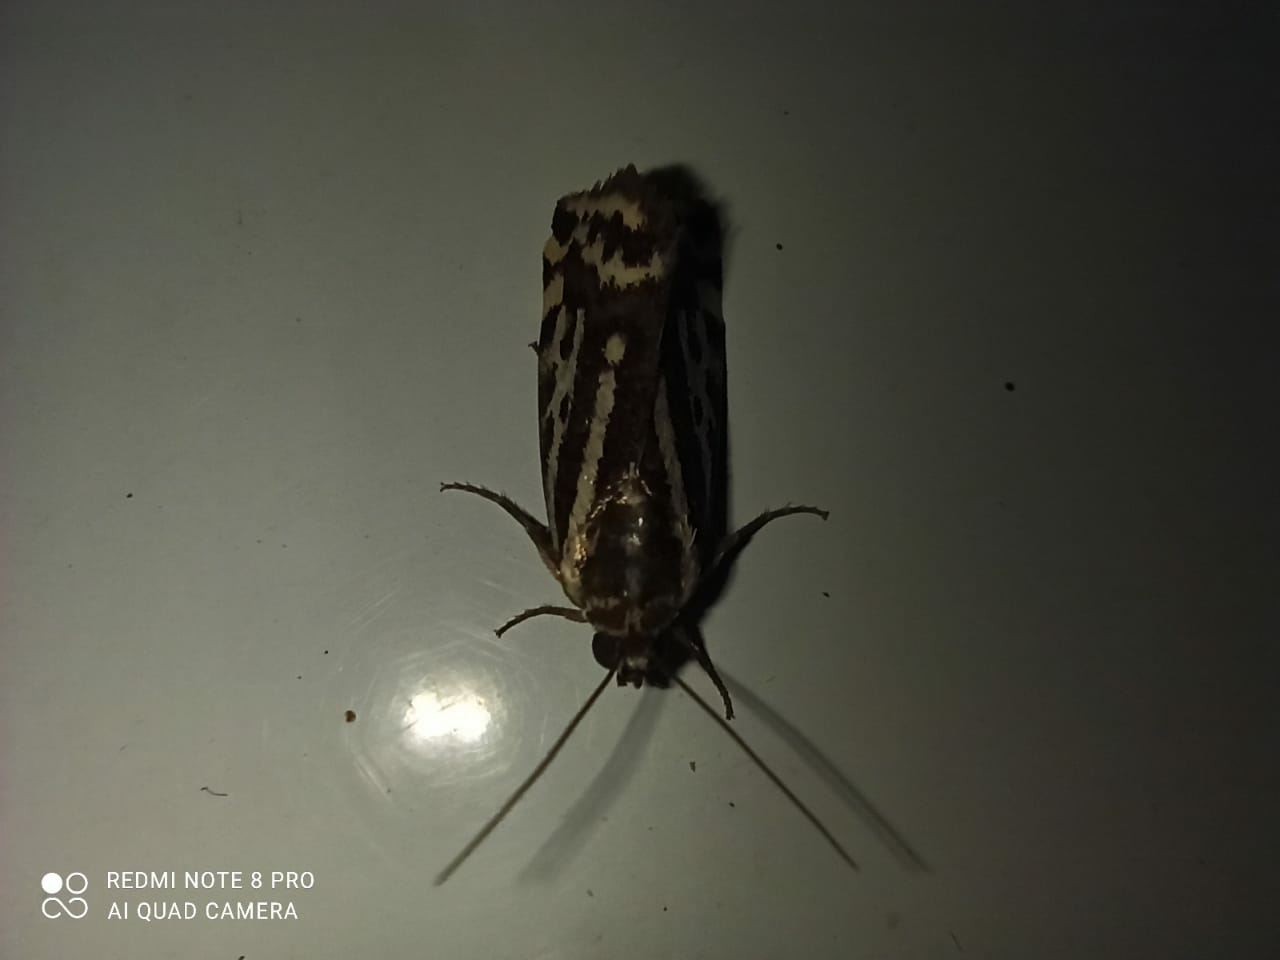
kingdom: Animalia
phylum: Arthropoda
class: Insecta
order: Lepidoptera
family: Noctuidae
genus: Acontia
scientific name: Acontia trabealis
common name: Spotted sulphur
